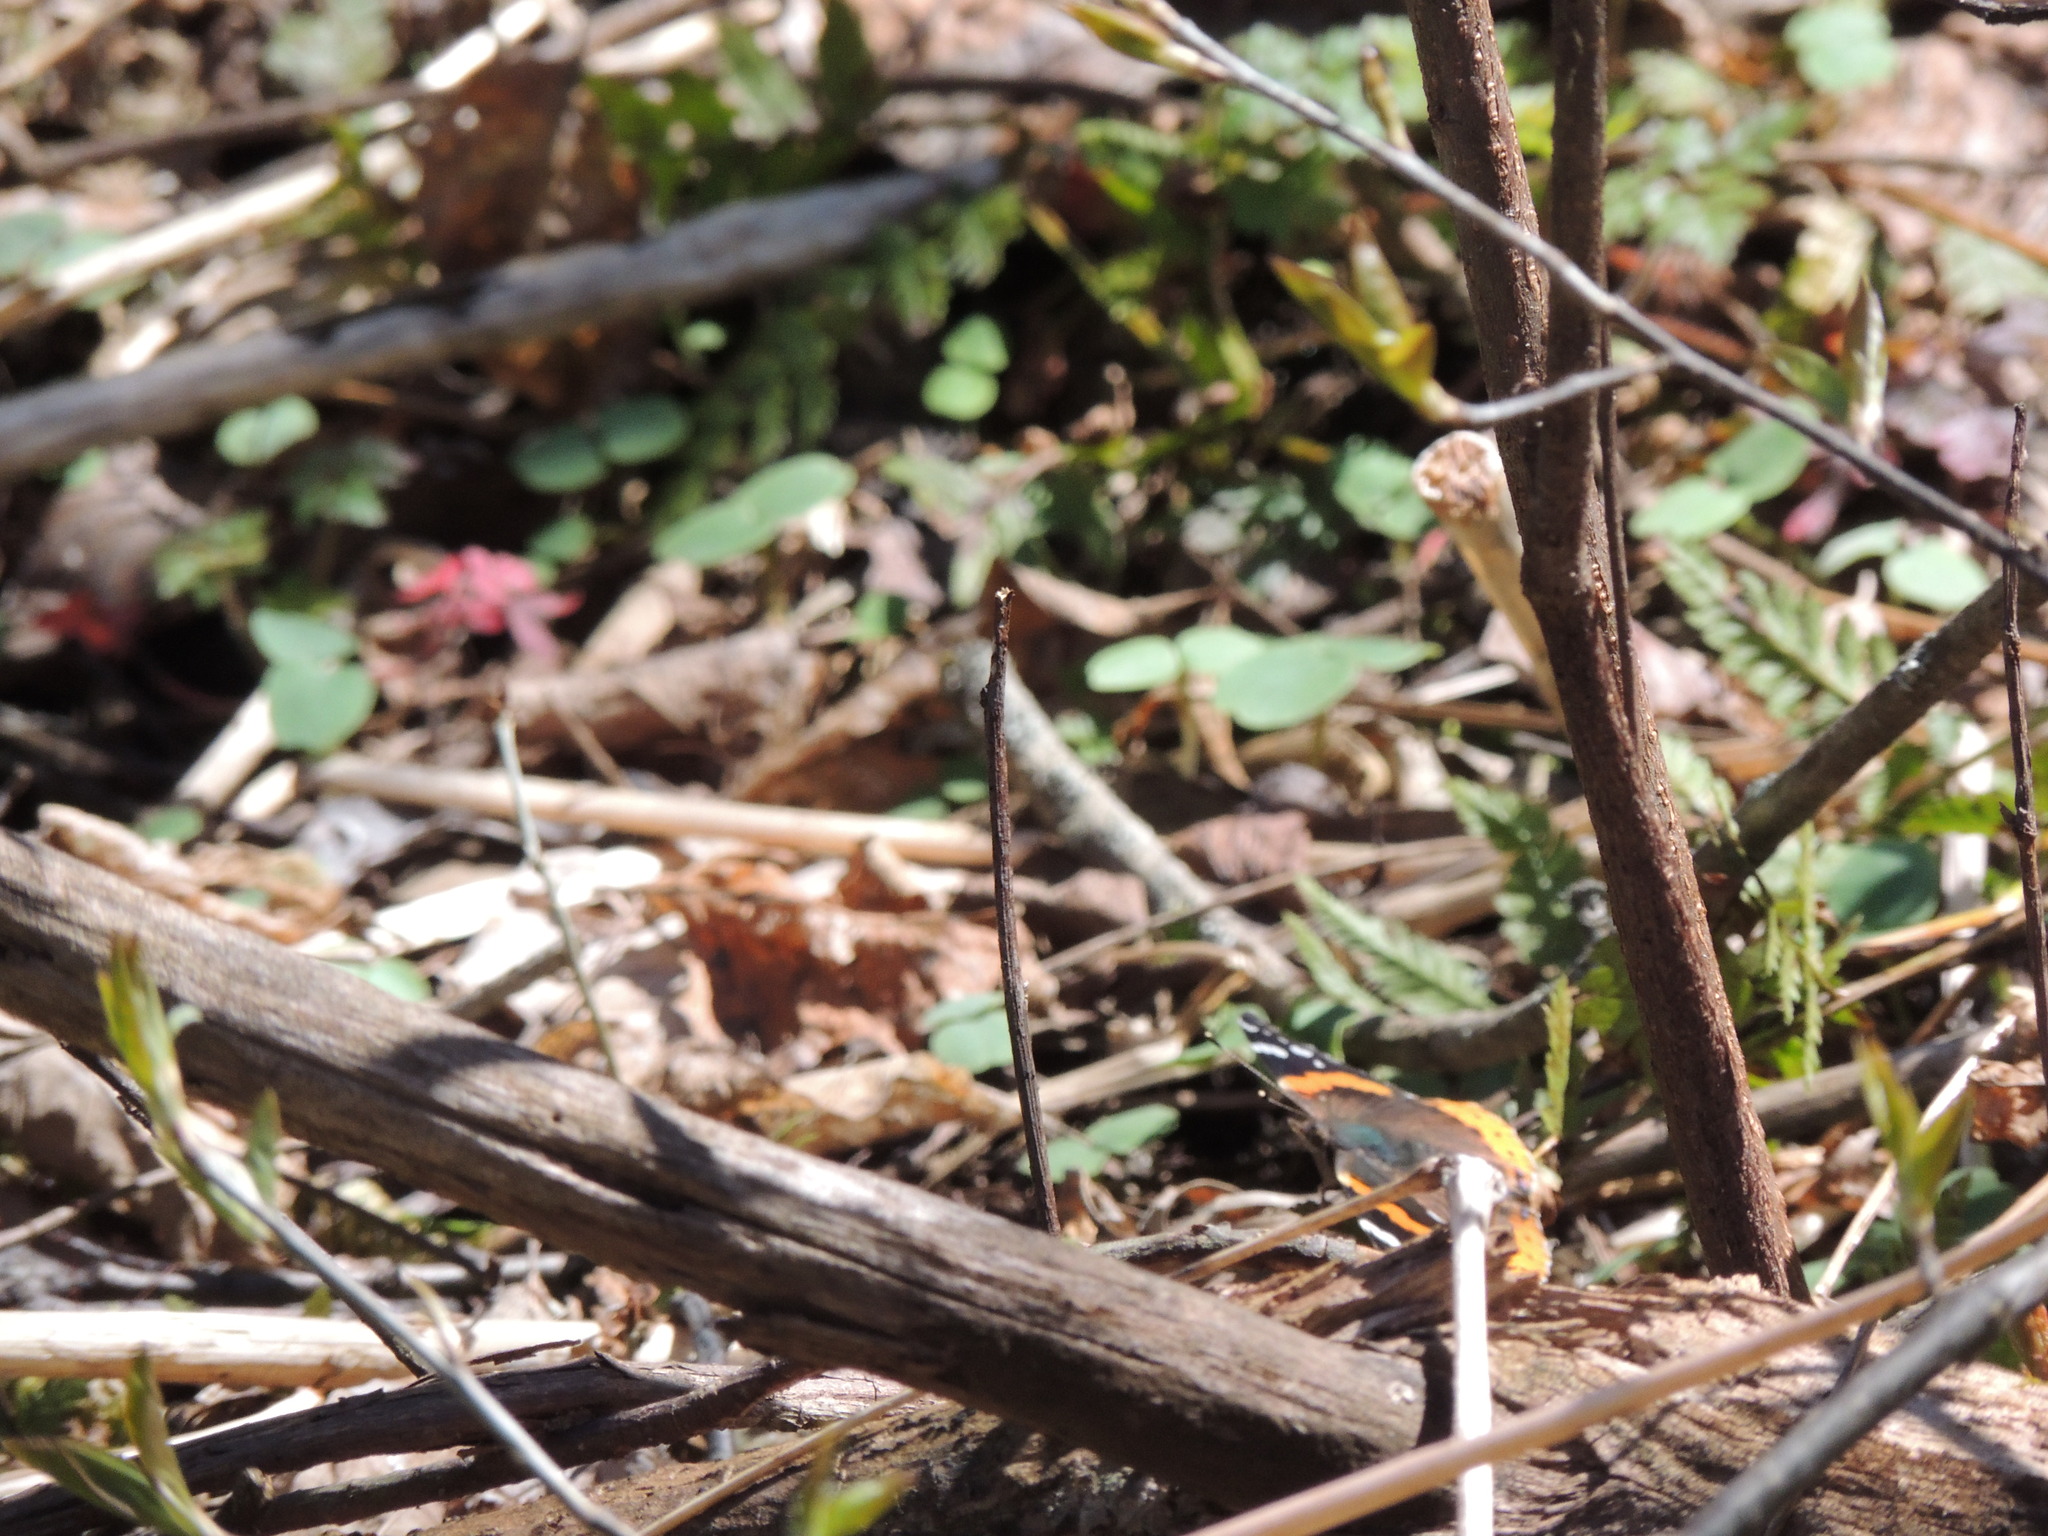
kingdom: Animalia
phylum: Arthropoda
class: Insecta
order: Lepidoptera
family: Nymphalidae
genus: Vanessa
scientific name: Vanessa atalanta
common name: Red admiral
